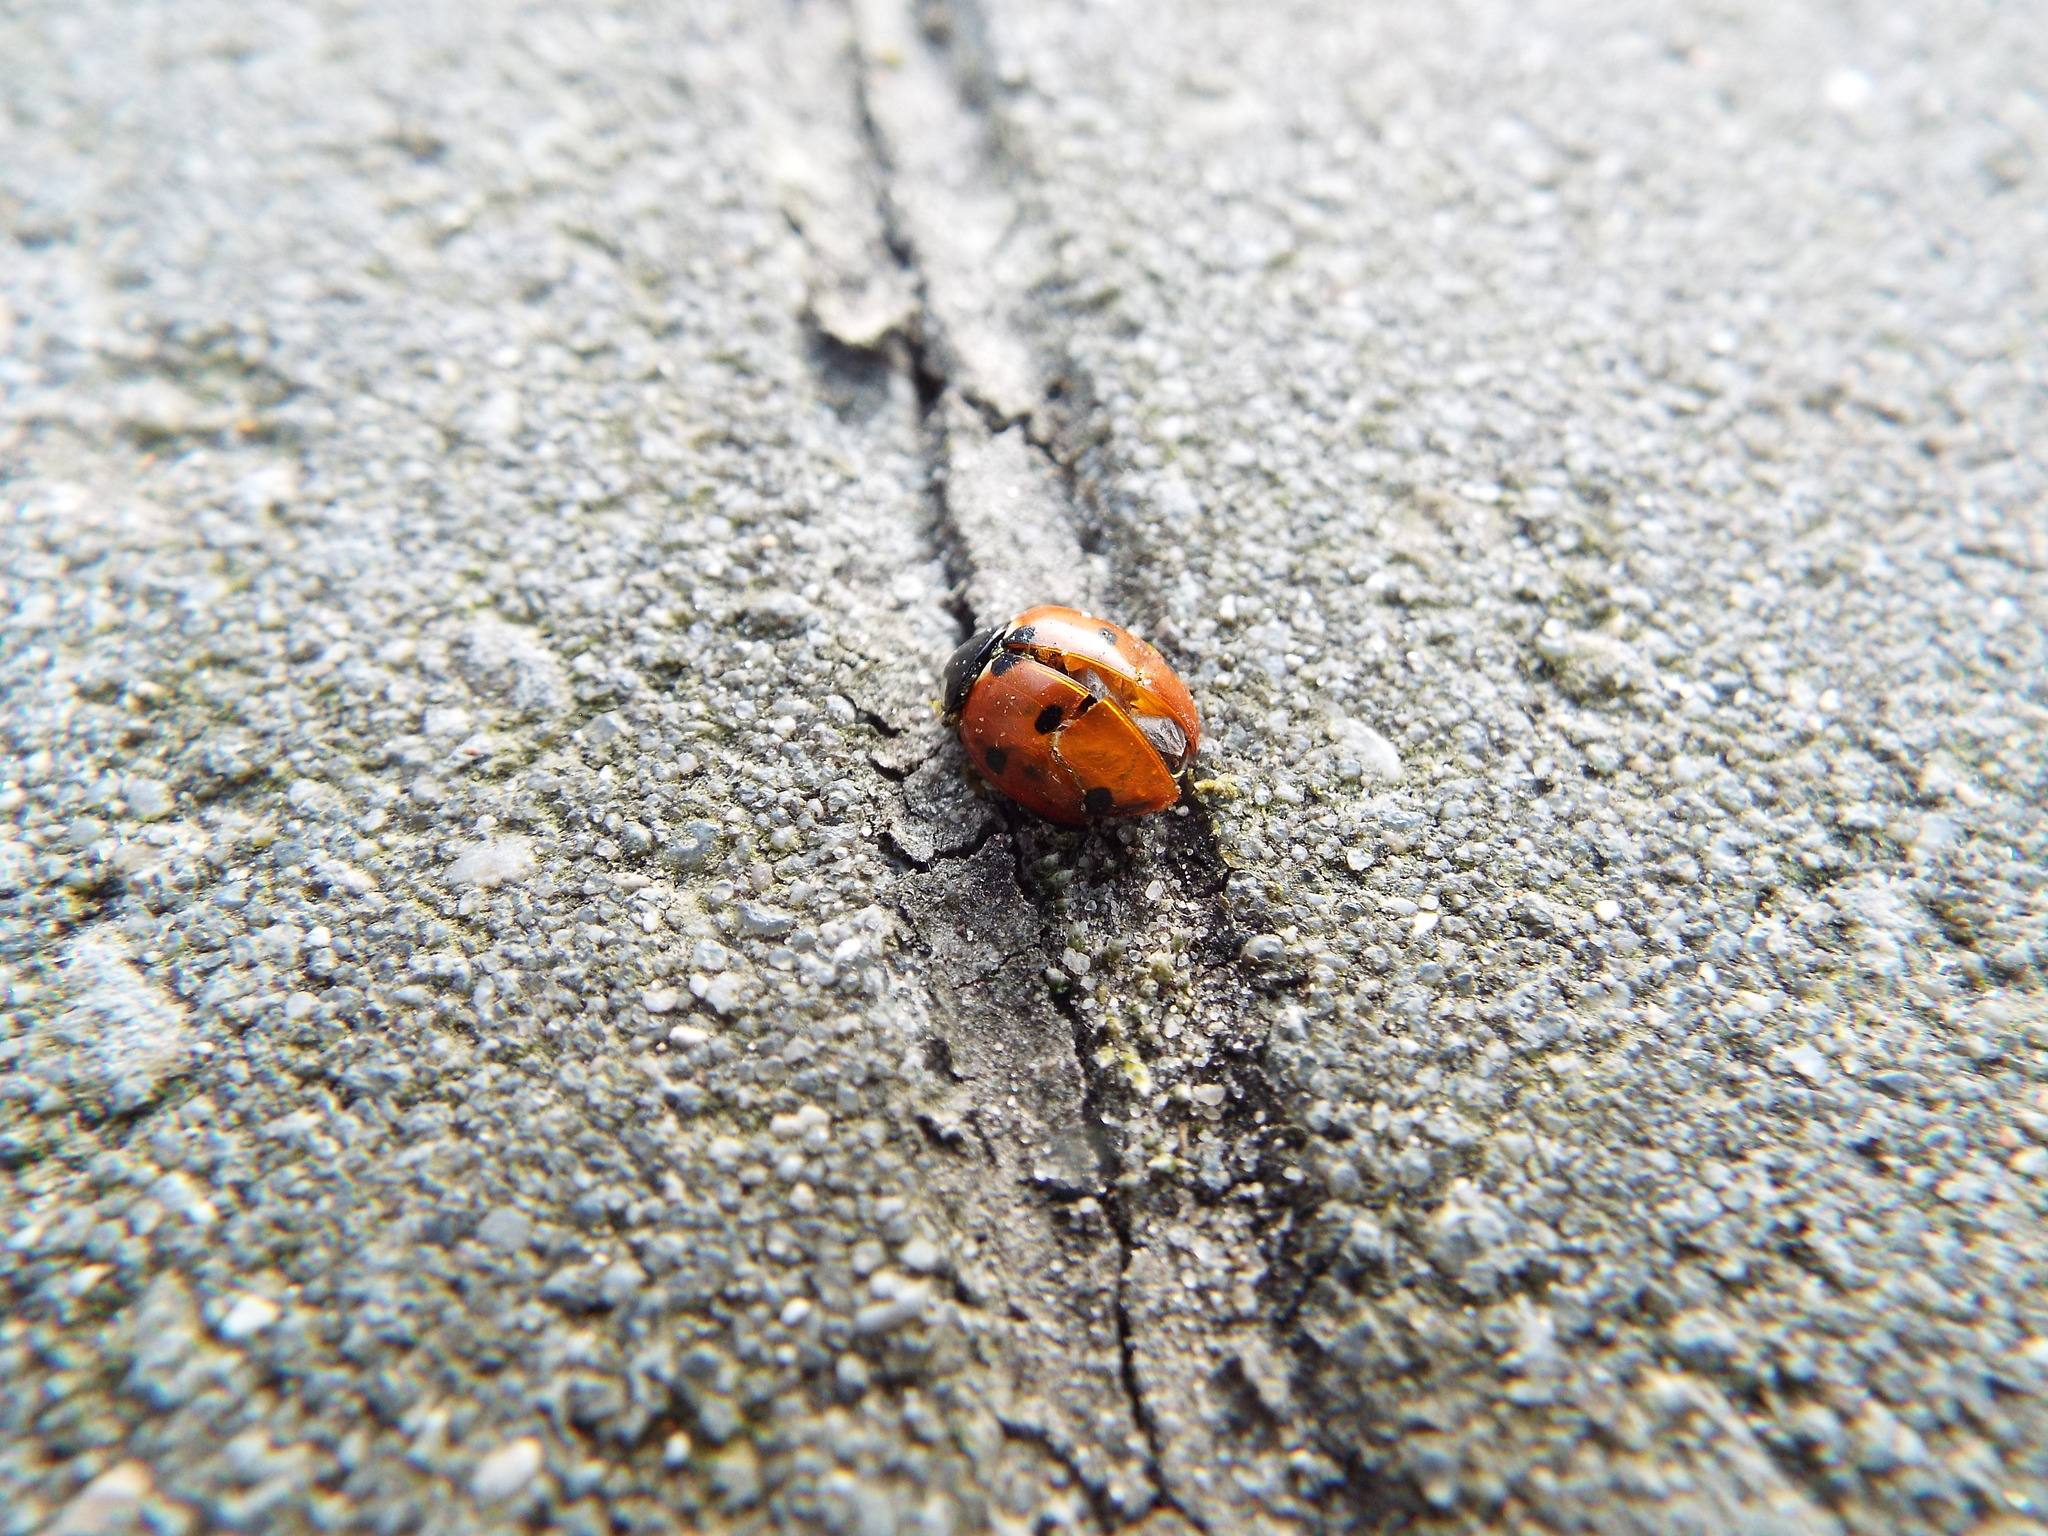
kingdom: Animalia
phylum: Arthropoda
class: Insecta
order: Coleoptera
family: Coccinellidae
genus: Coccinella
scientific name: Coccinella septempunctata
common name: Sevenspotted lady beetle
